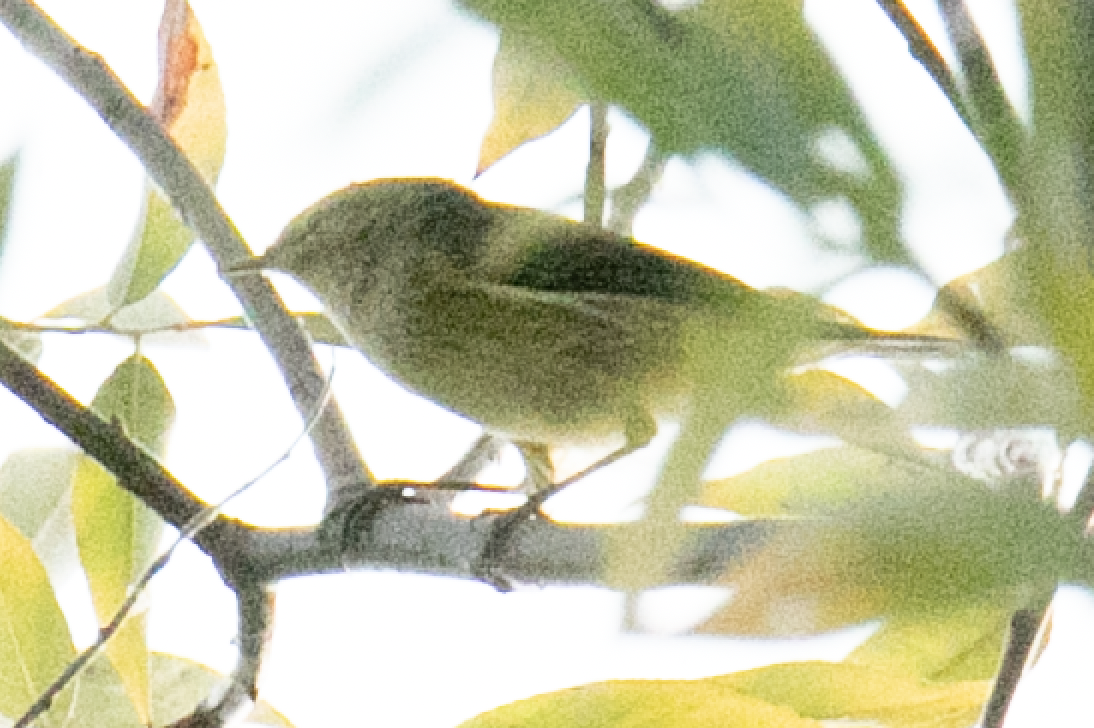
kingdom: Animalia
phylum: Chordata
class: Aves
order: Passeriformes
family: Phylloscopidae
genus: Phylloscopus
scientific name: Phylloscopus collybita
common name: Common chiffchaff
